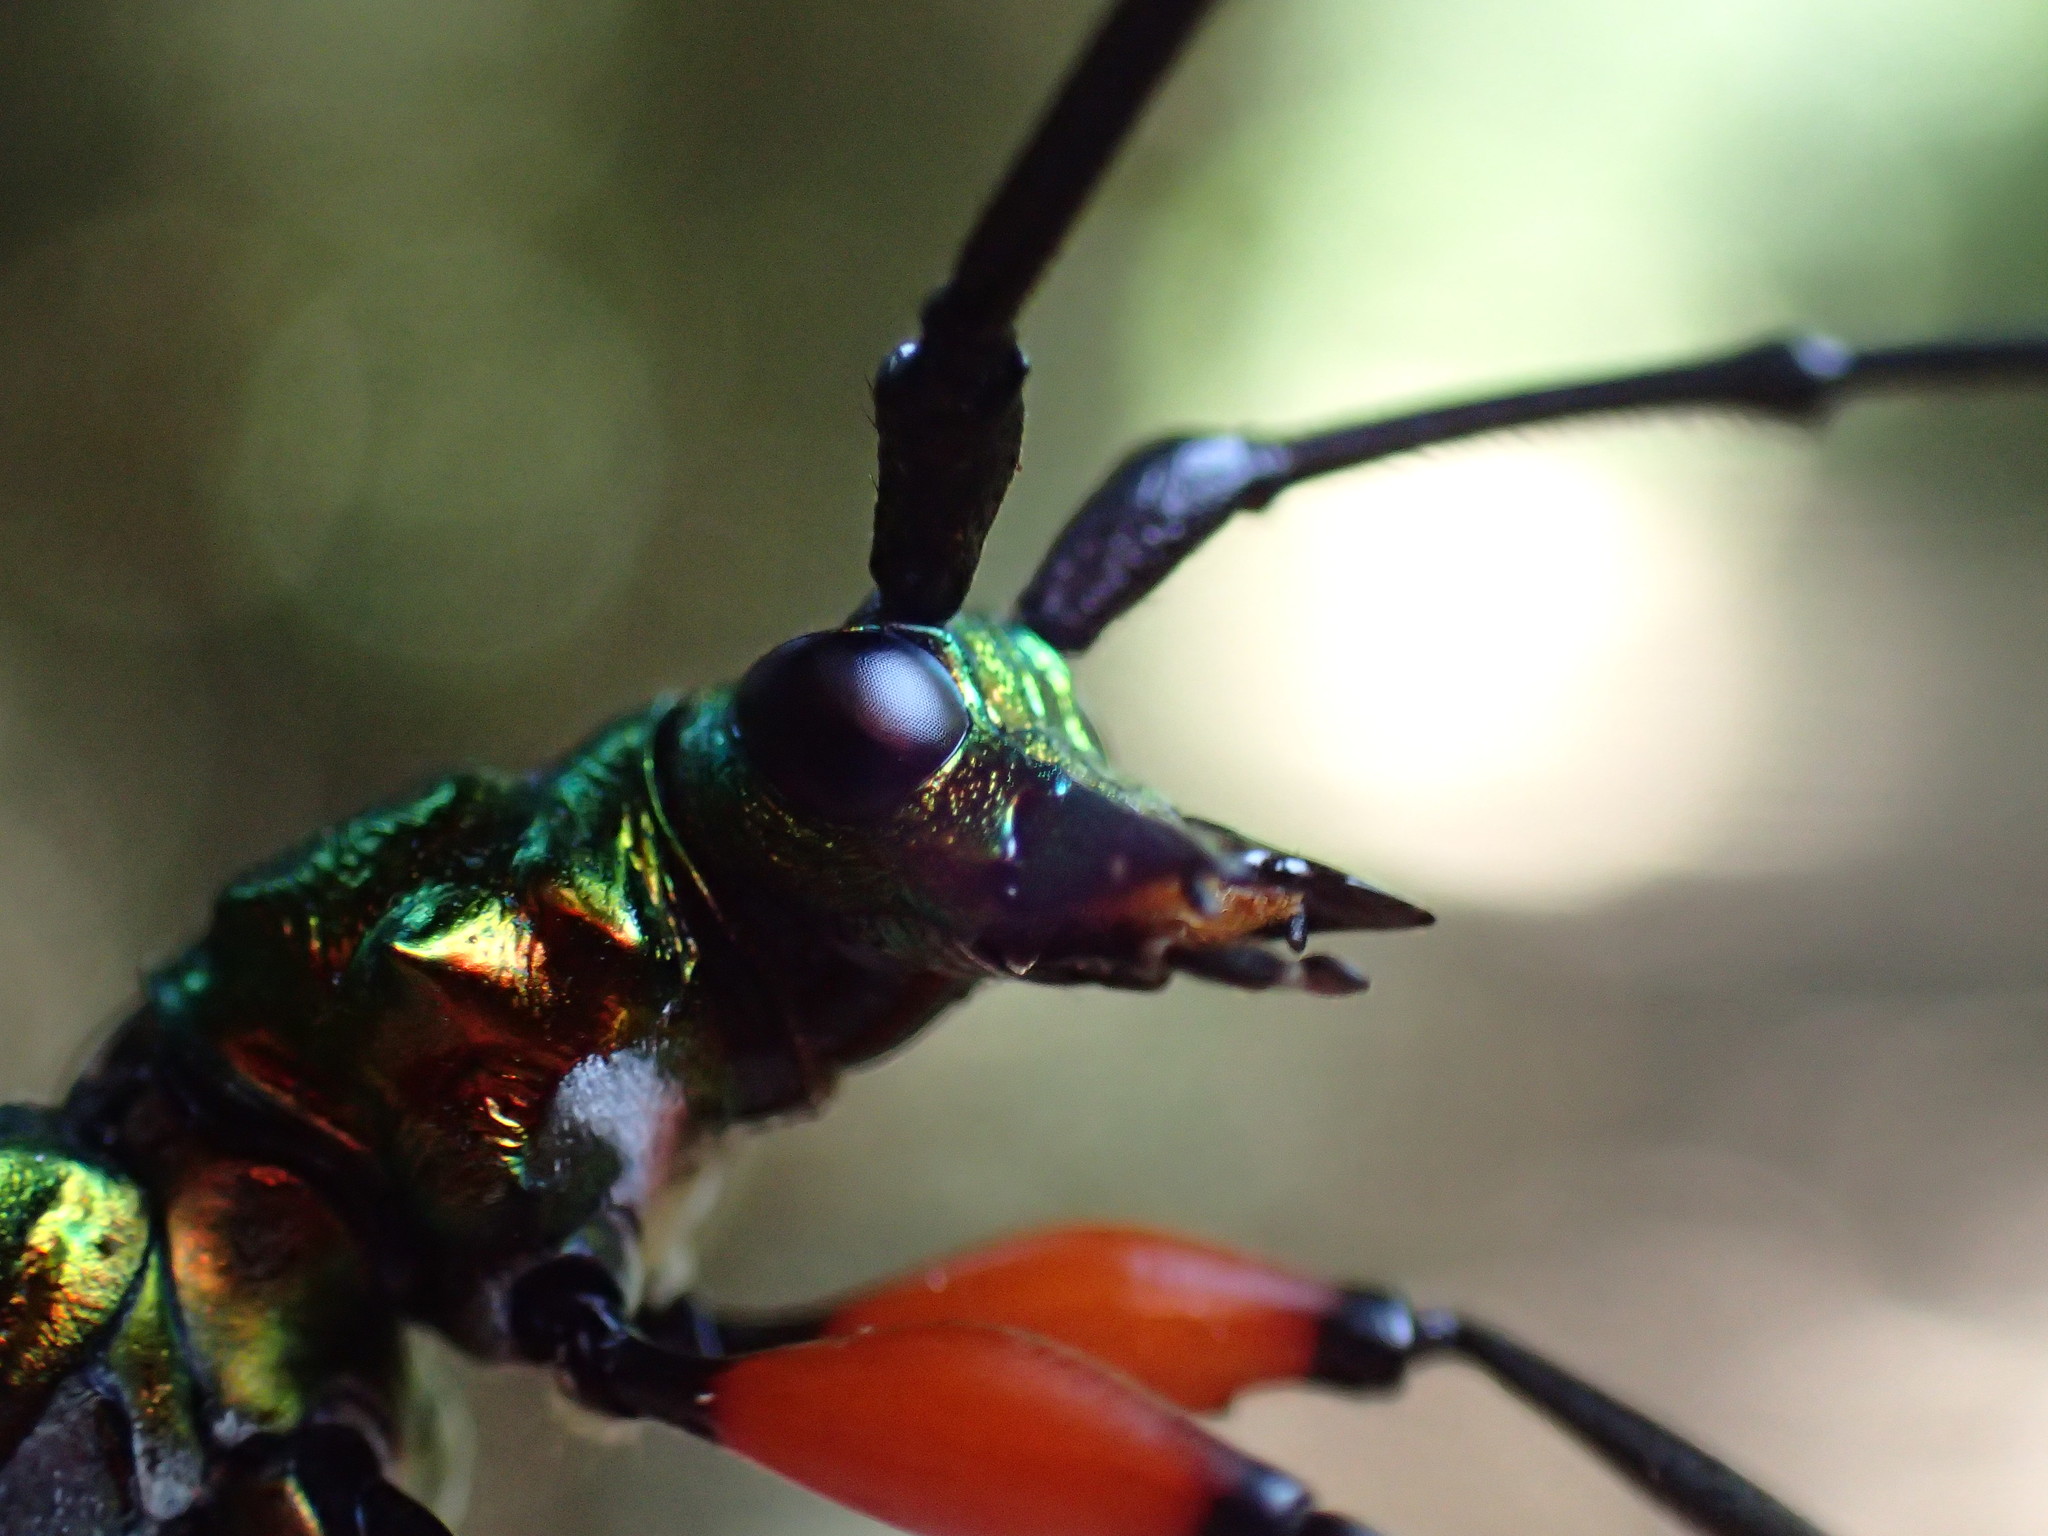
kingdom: Animalia
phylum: Arthropoda
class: Insecta
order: Coleoptera
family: Cerambycidae
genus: Philematium
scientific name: Philematium virens
